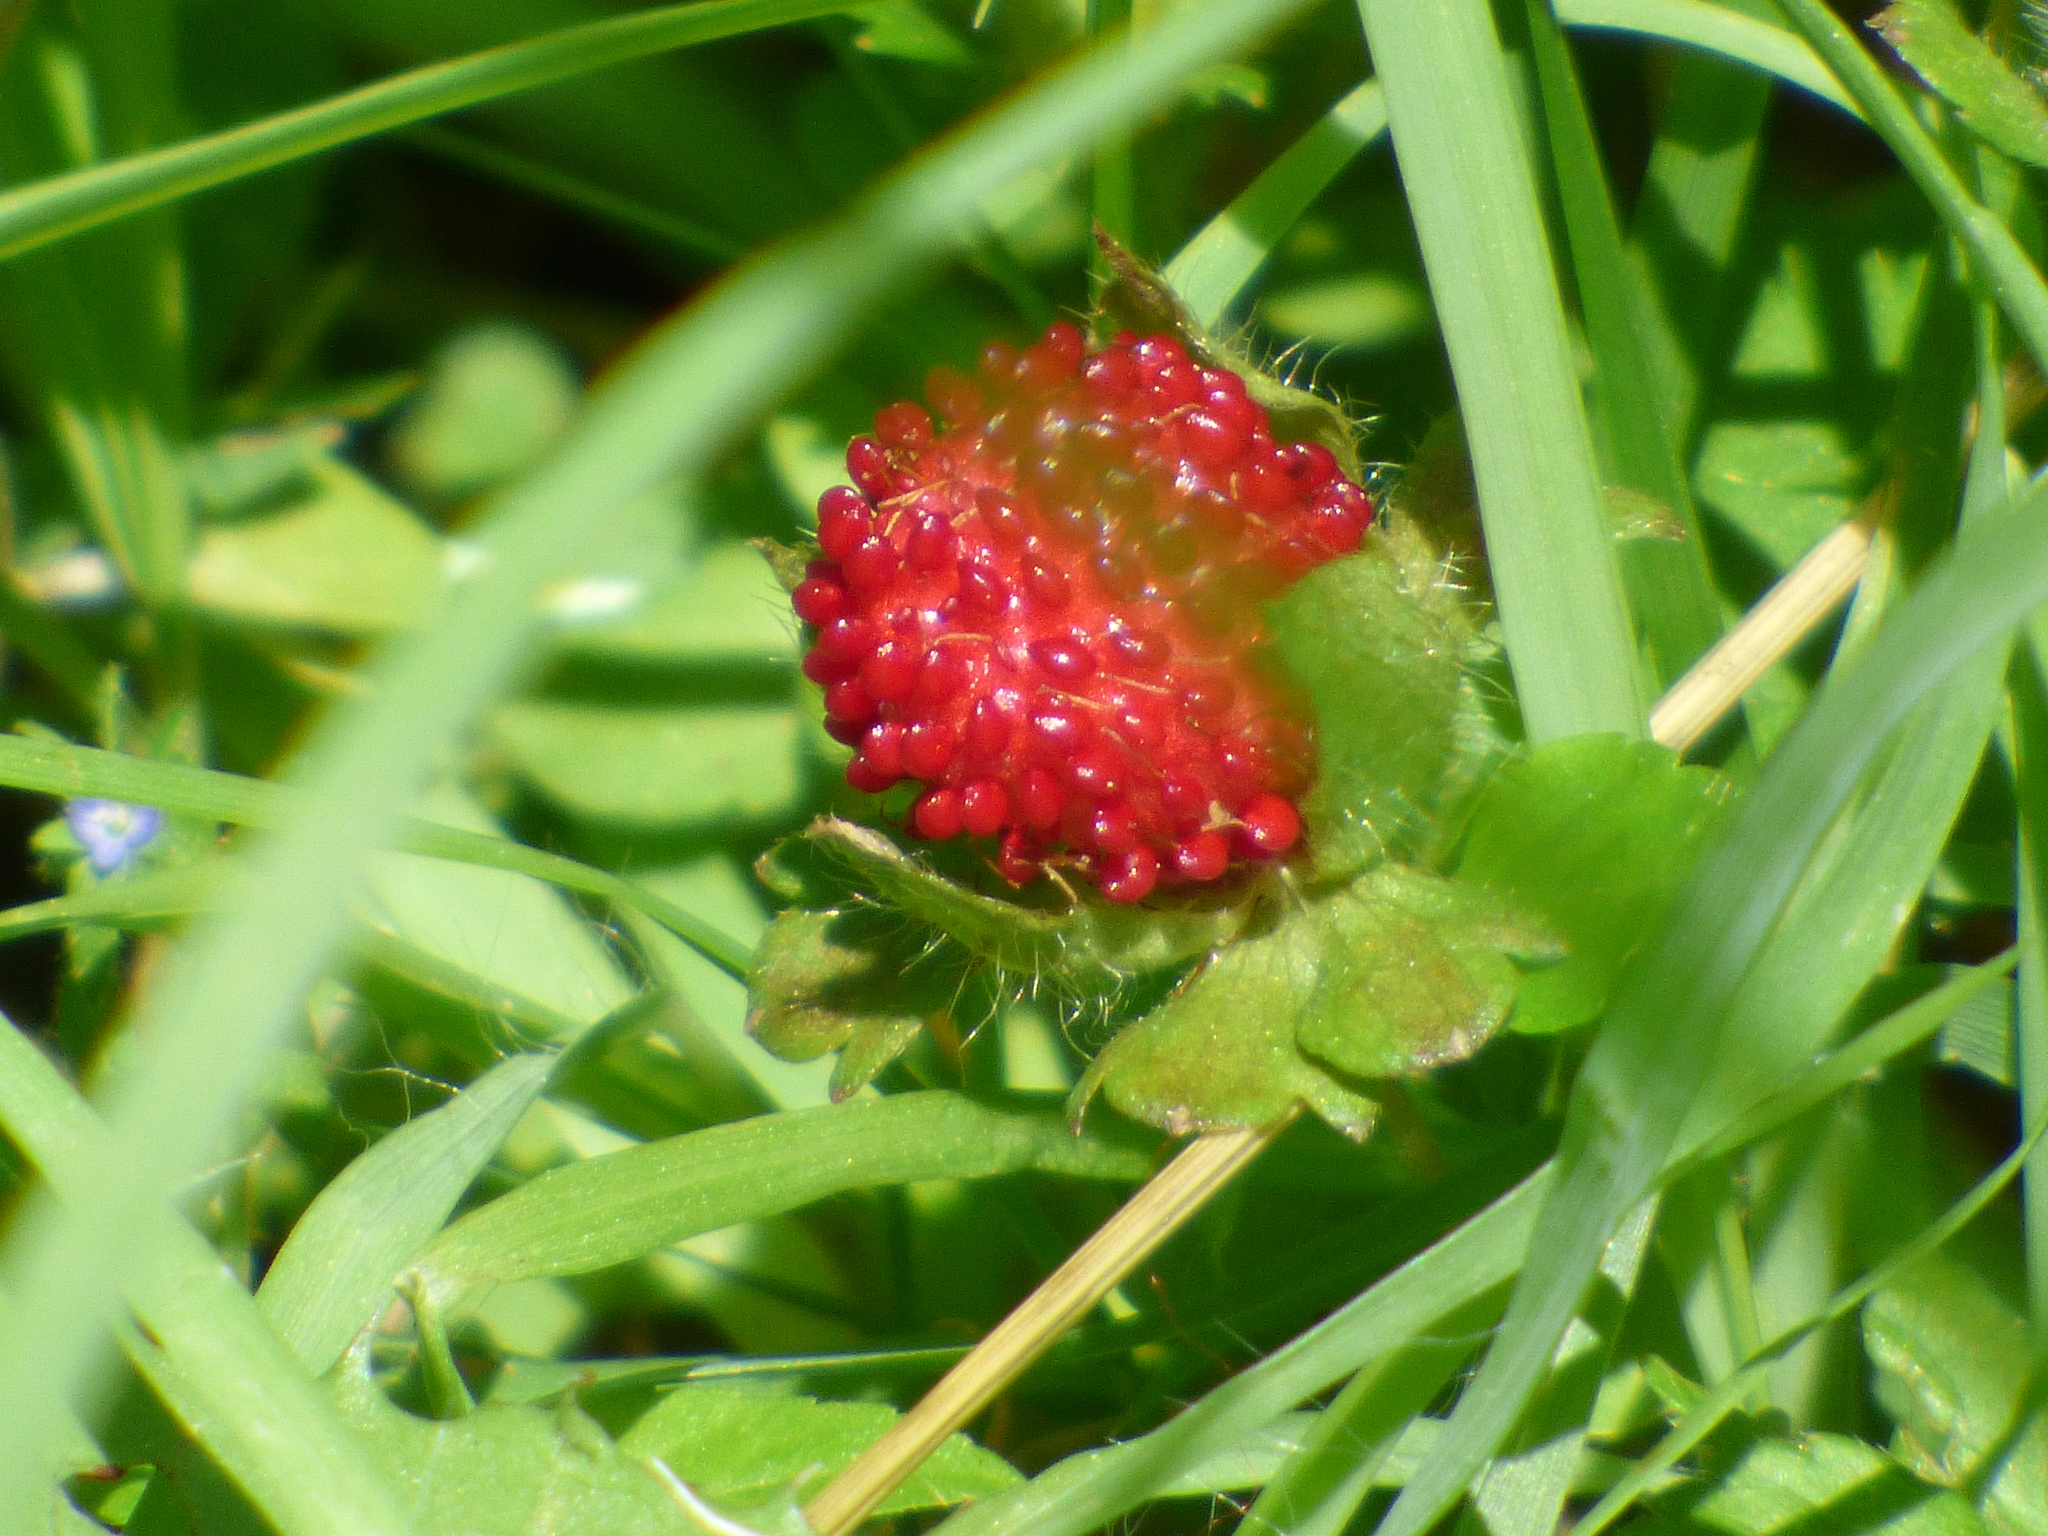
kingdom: Plantae
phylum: Tracheophyta
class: Magnoliopsida
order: Rosales
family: Rosaceae
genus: Potentilla
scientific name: Potentilla indica
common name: Yellow-flowered strawberry
